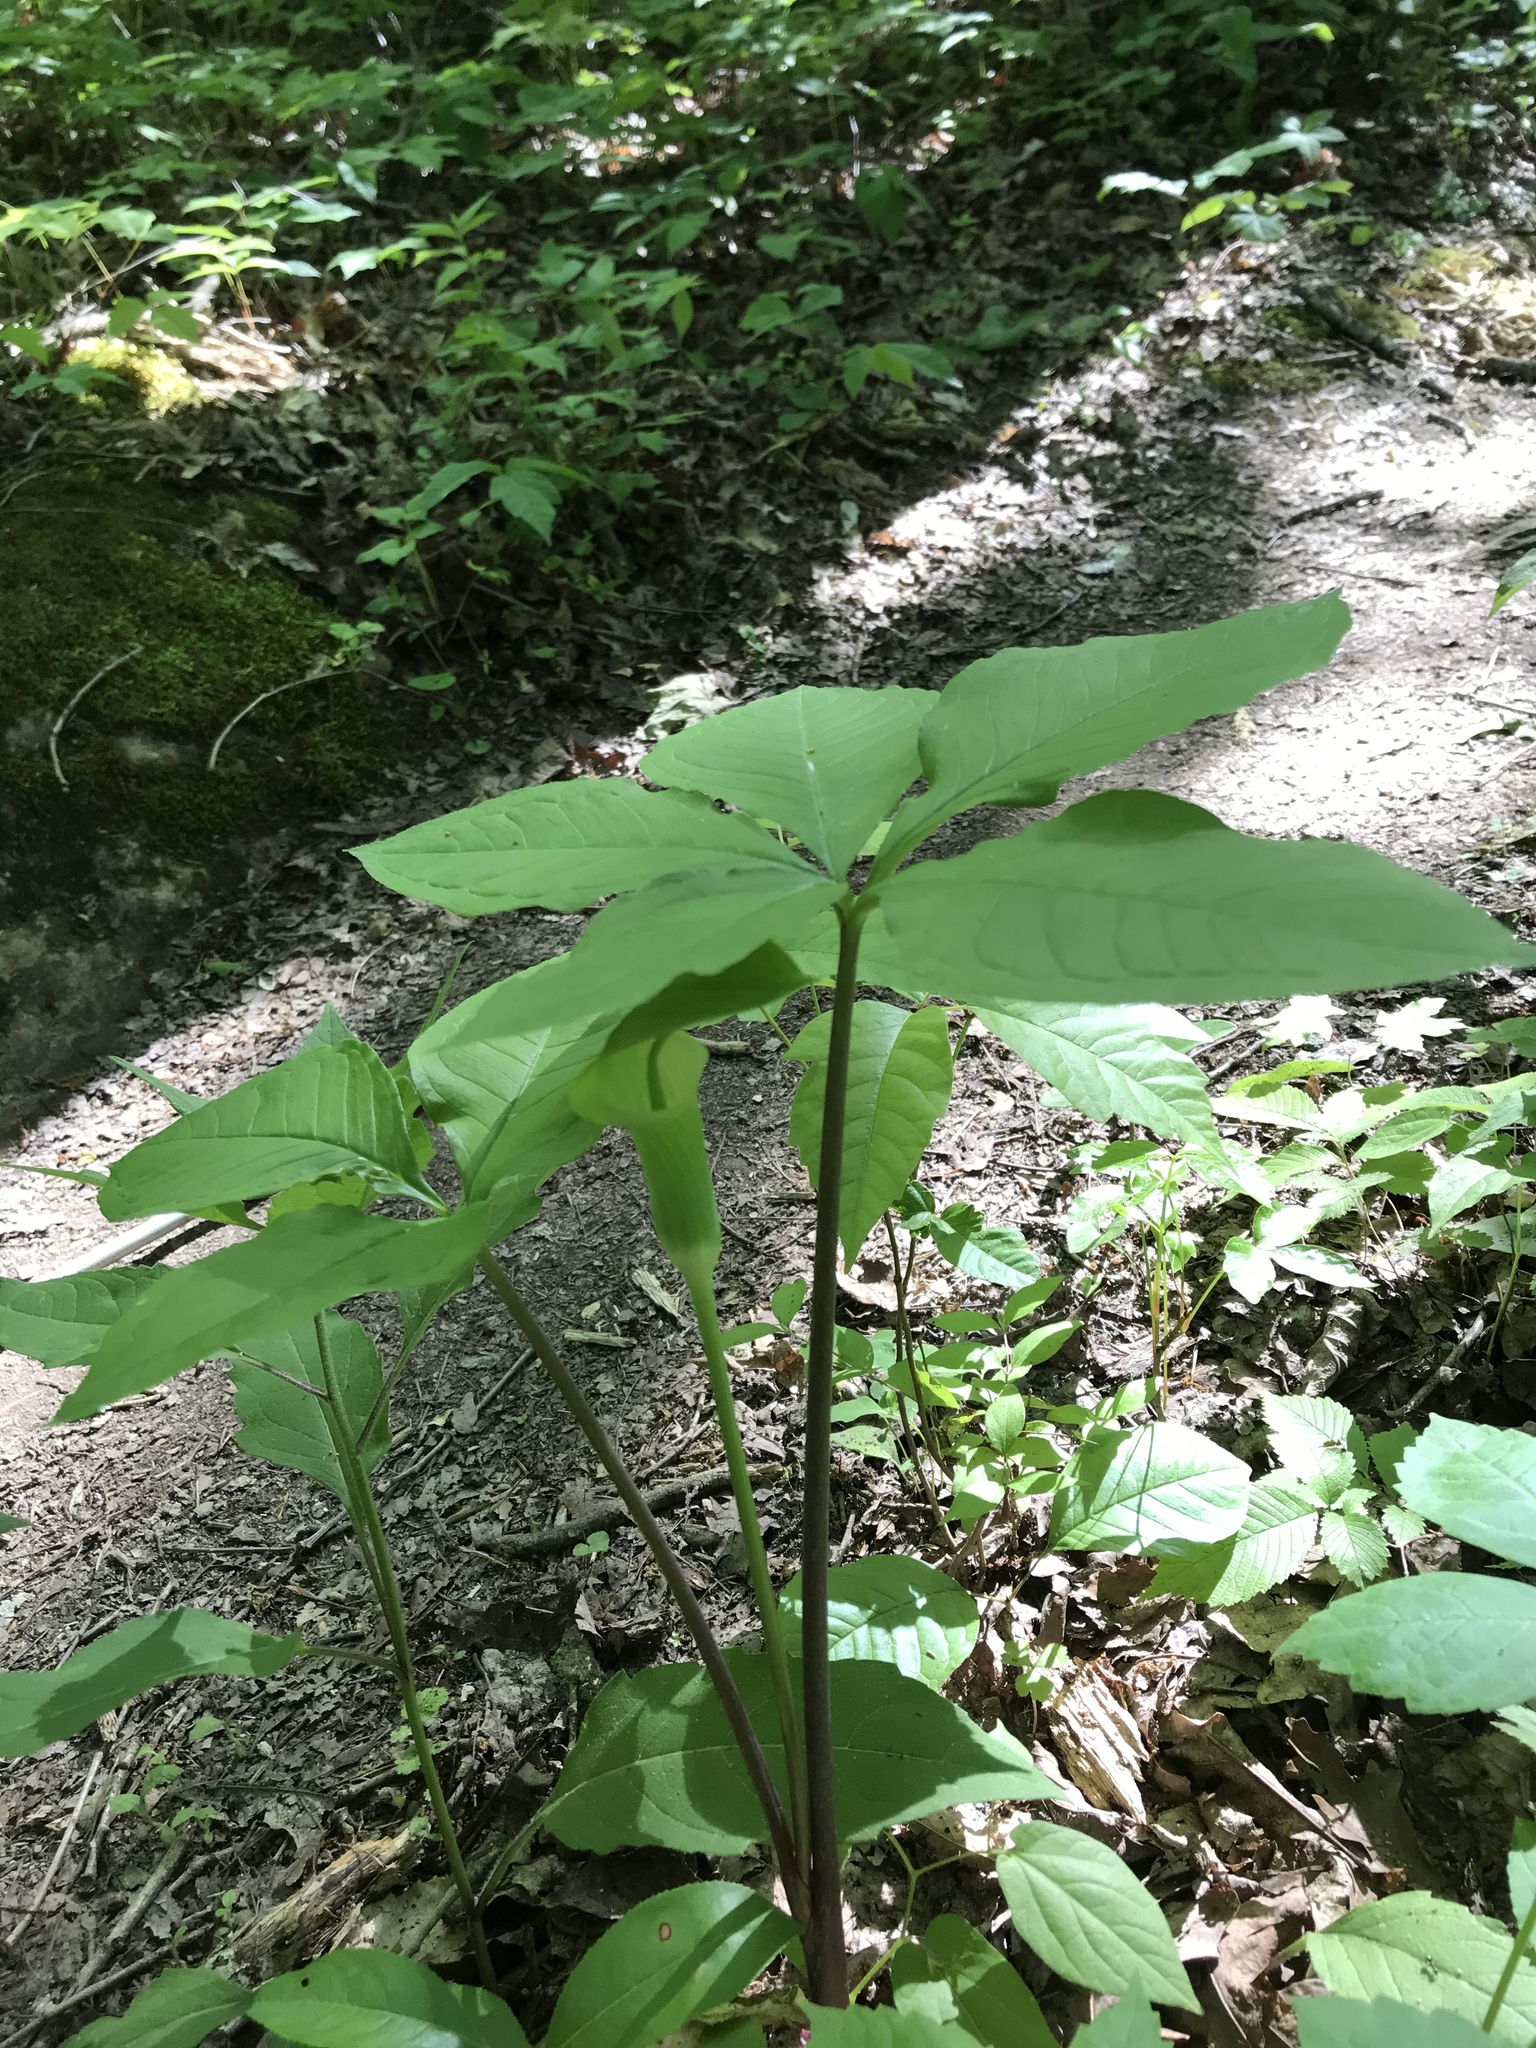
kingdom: Plantae
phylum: Tracheophyta
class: Liliopsida
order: Alismatales
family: Araceae
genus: Arisaema
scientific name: Arisaema quinatum
